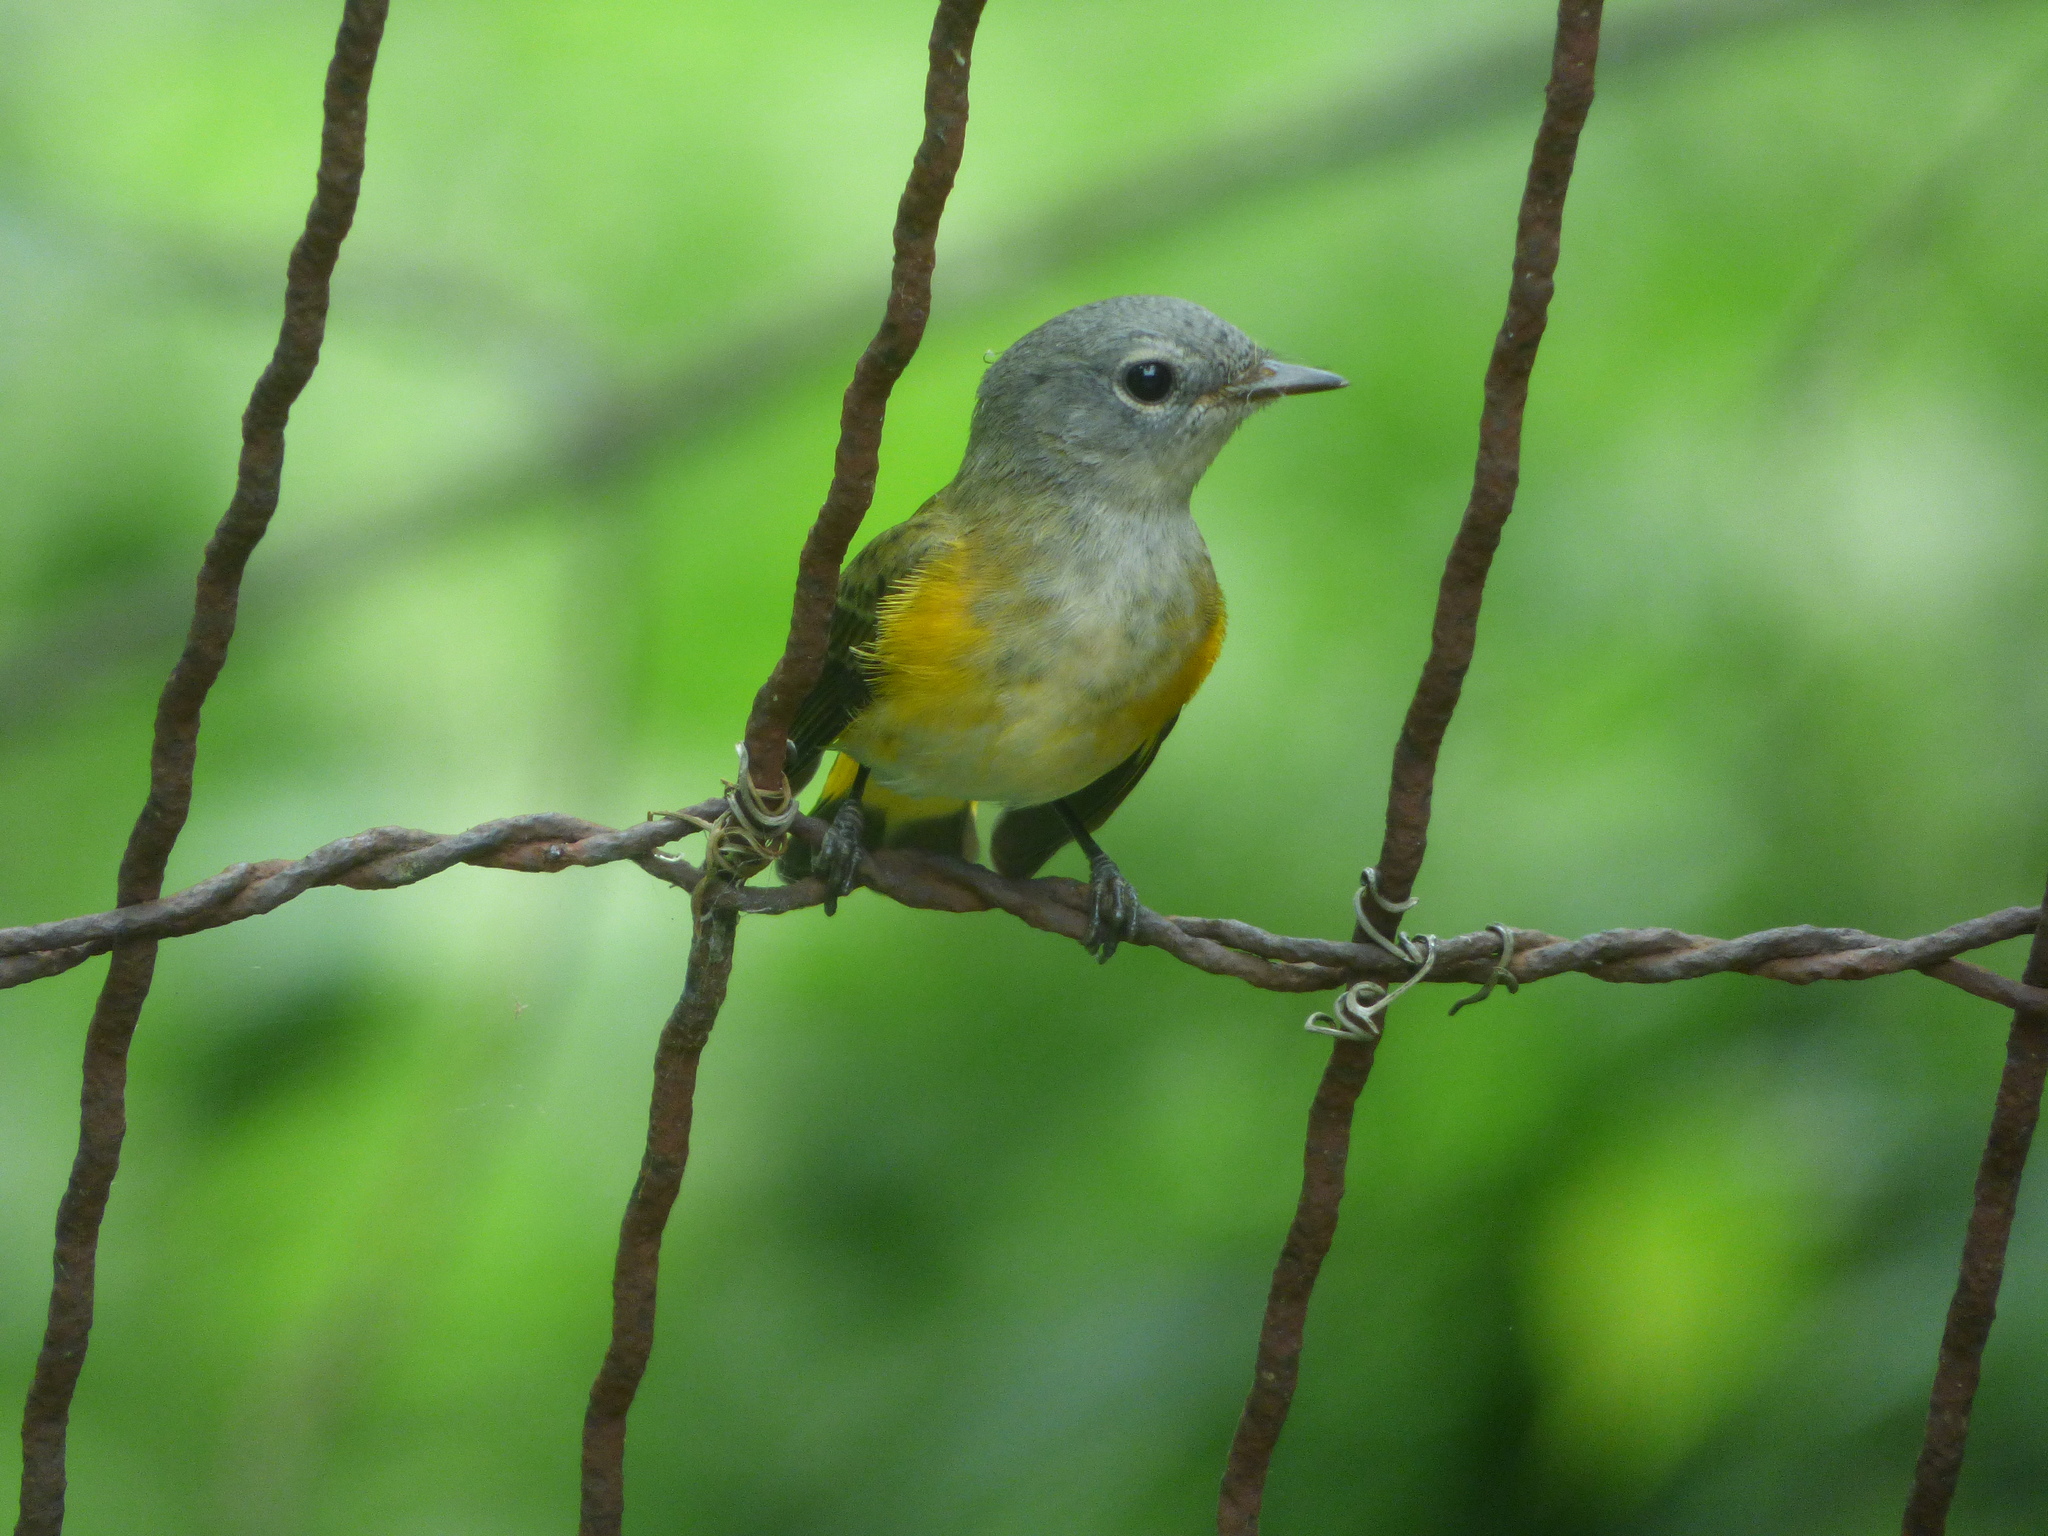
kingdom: Animalia
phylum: Chordata
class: Aves
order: Passeriformes
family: Parulidae
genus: Setophaga
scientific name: Setophaga ruticilla
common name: American redstart
